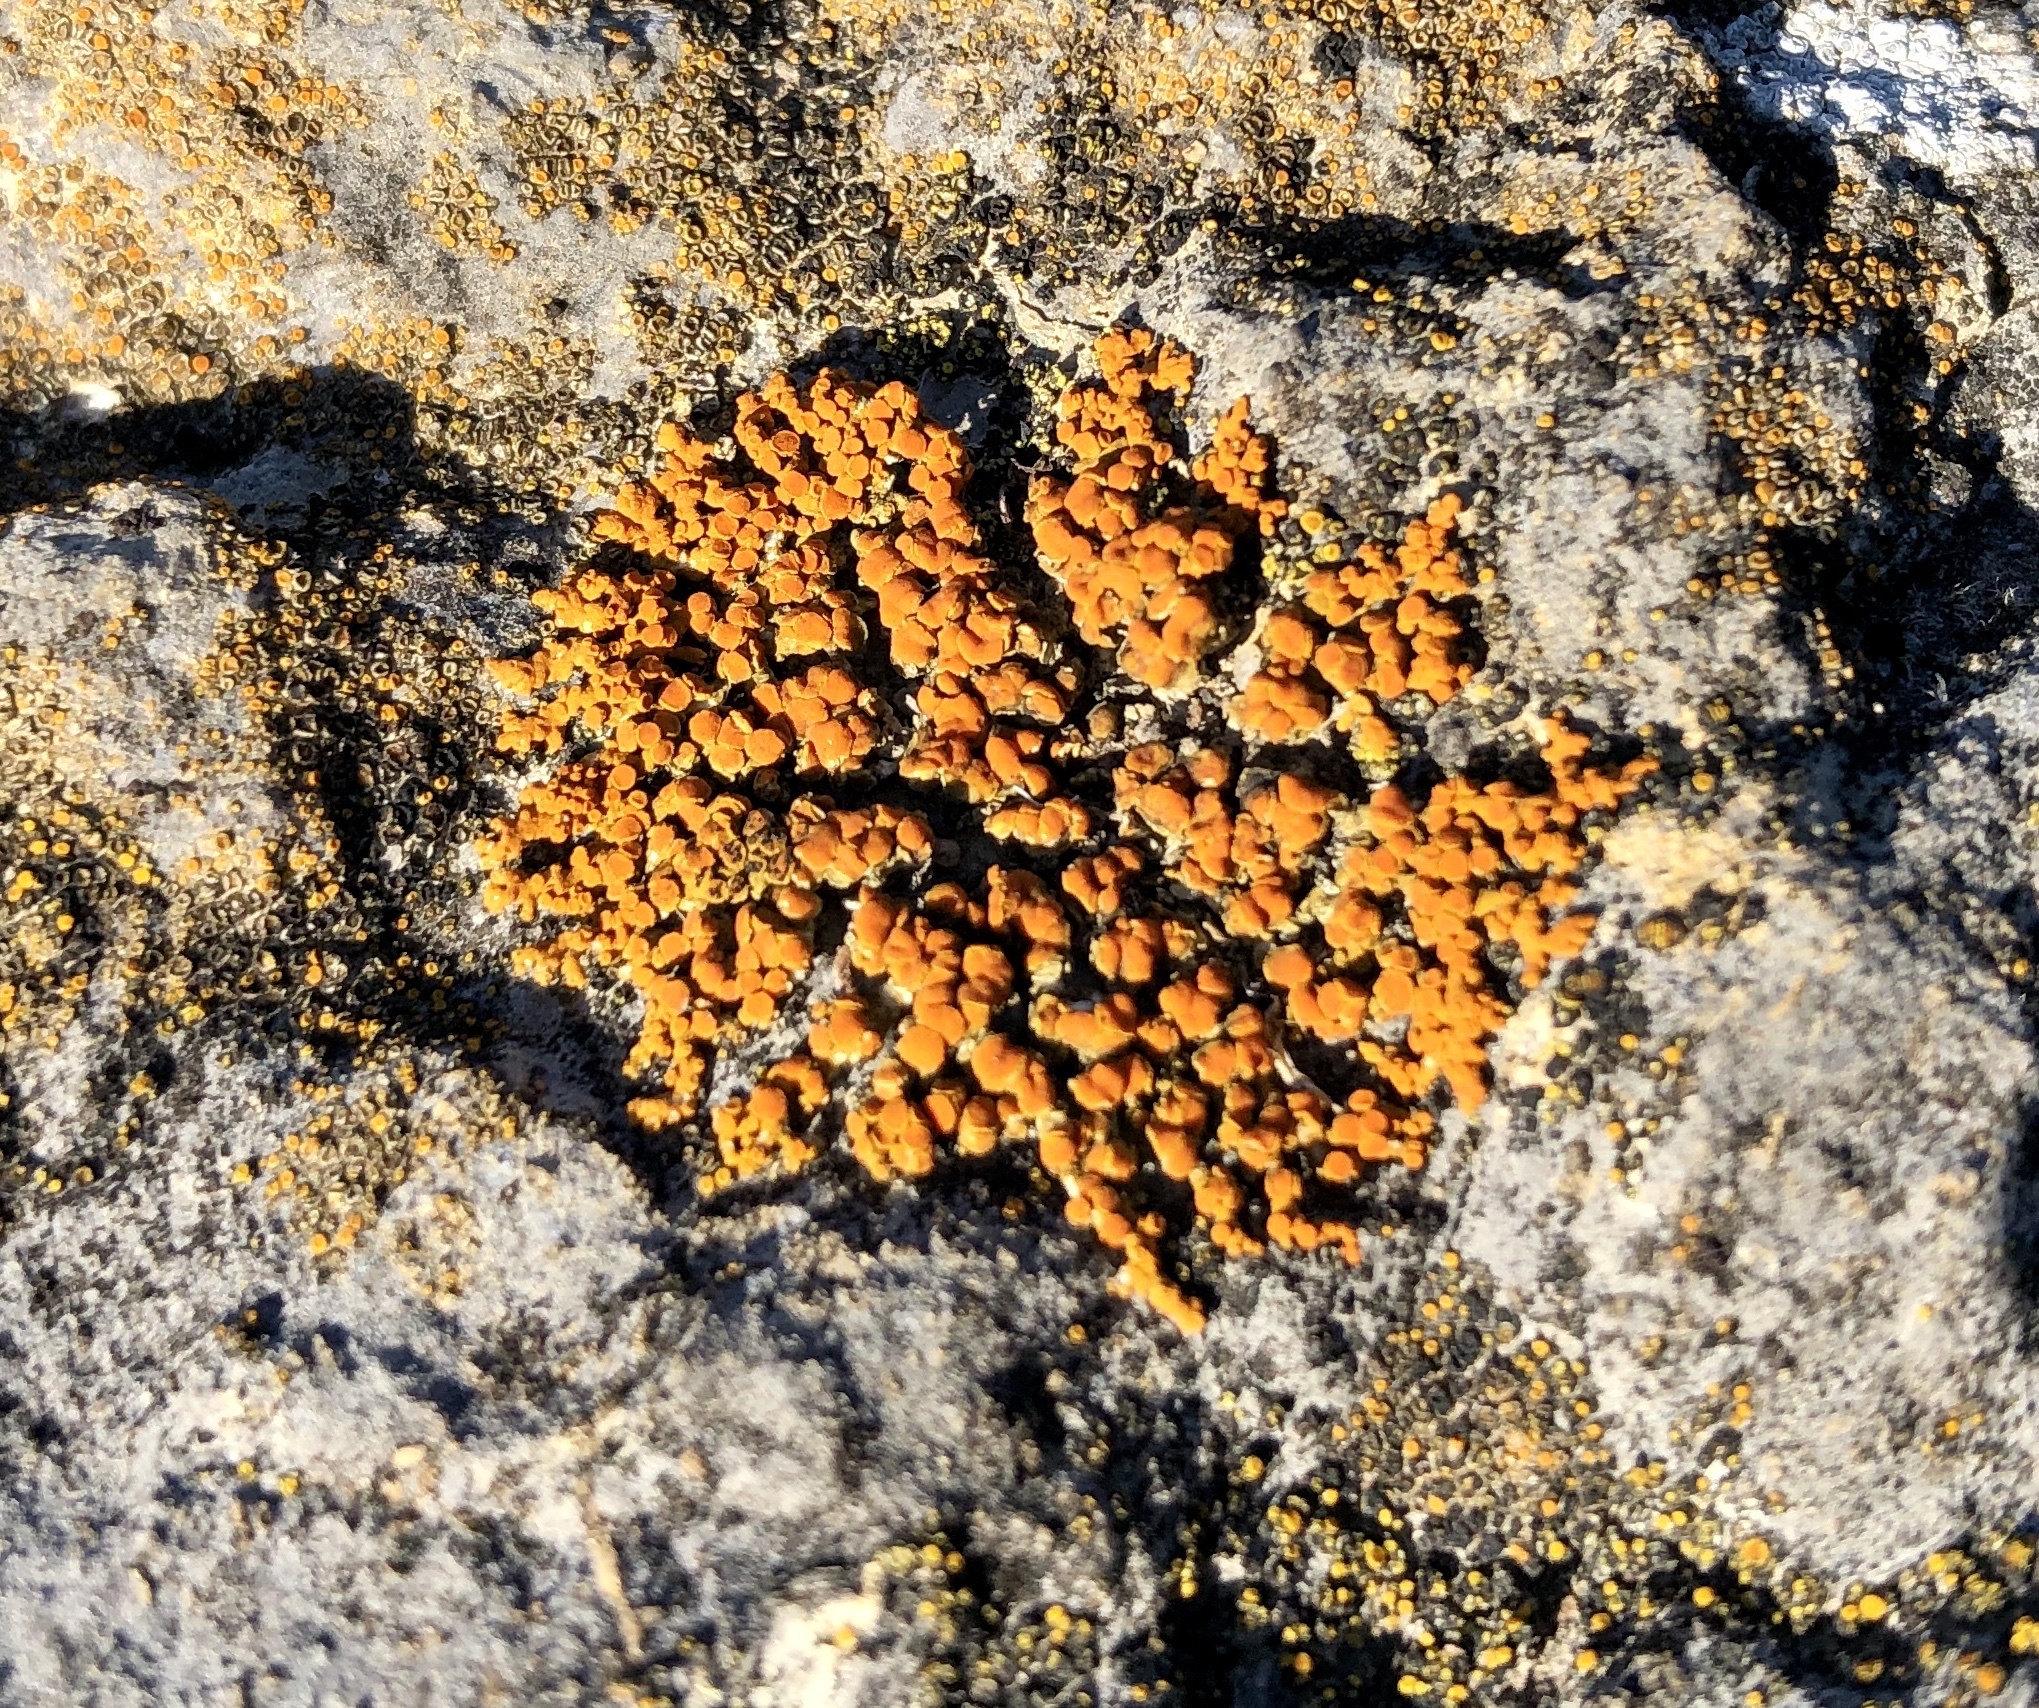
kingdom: Fungi
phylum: Ascomycota
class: Lecanoromycetes
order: Teloschistales
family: Teloschistaceae
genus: Xanthoria
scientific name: Xanthoria elegans
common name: Elegant sunburst lichen
